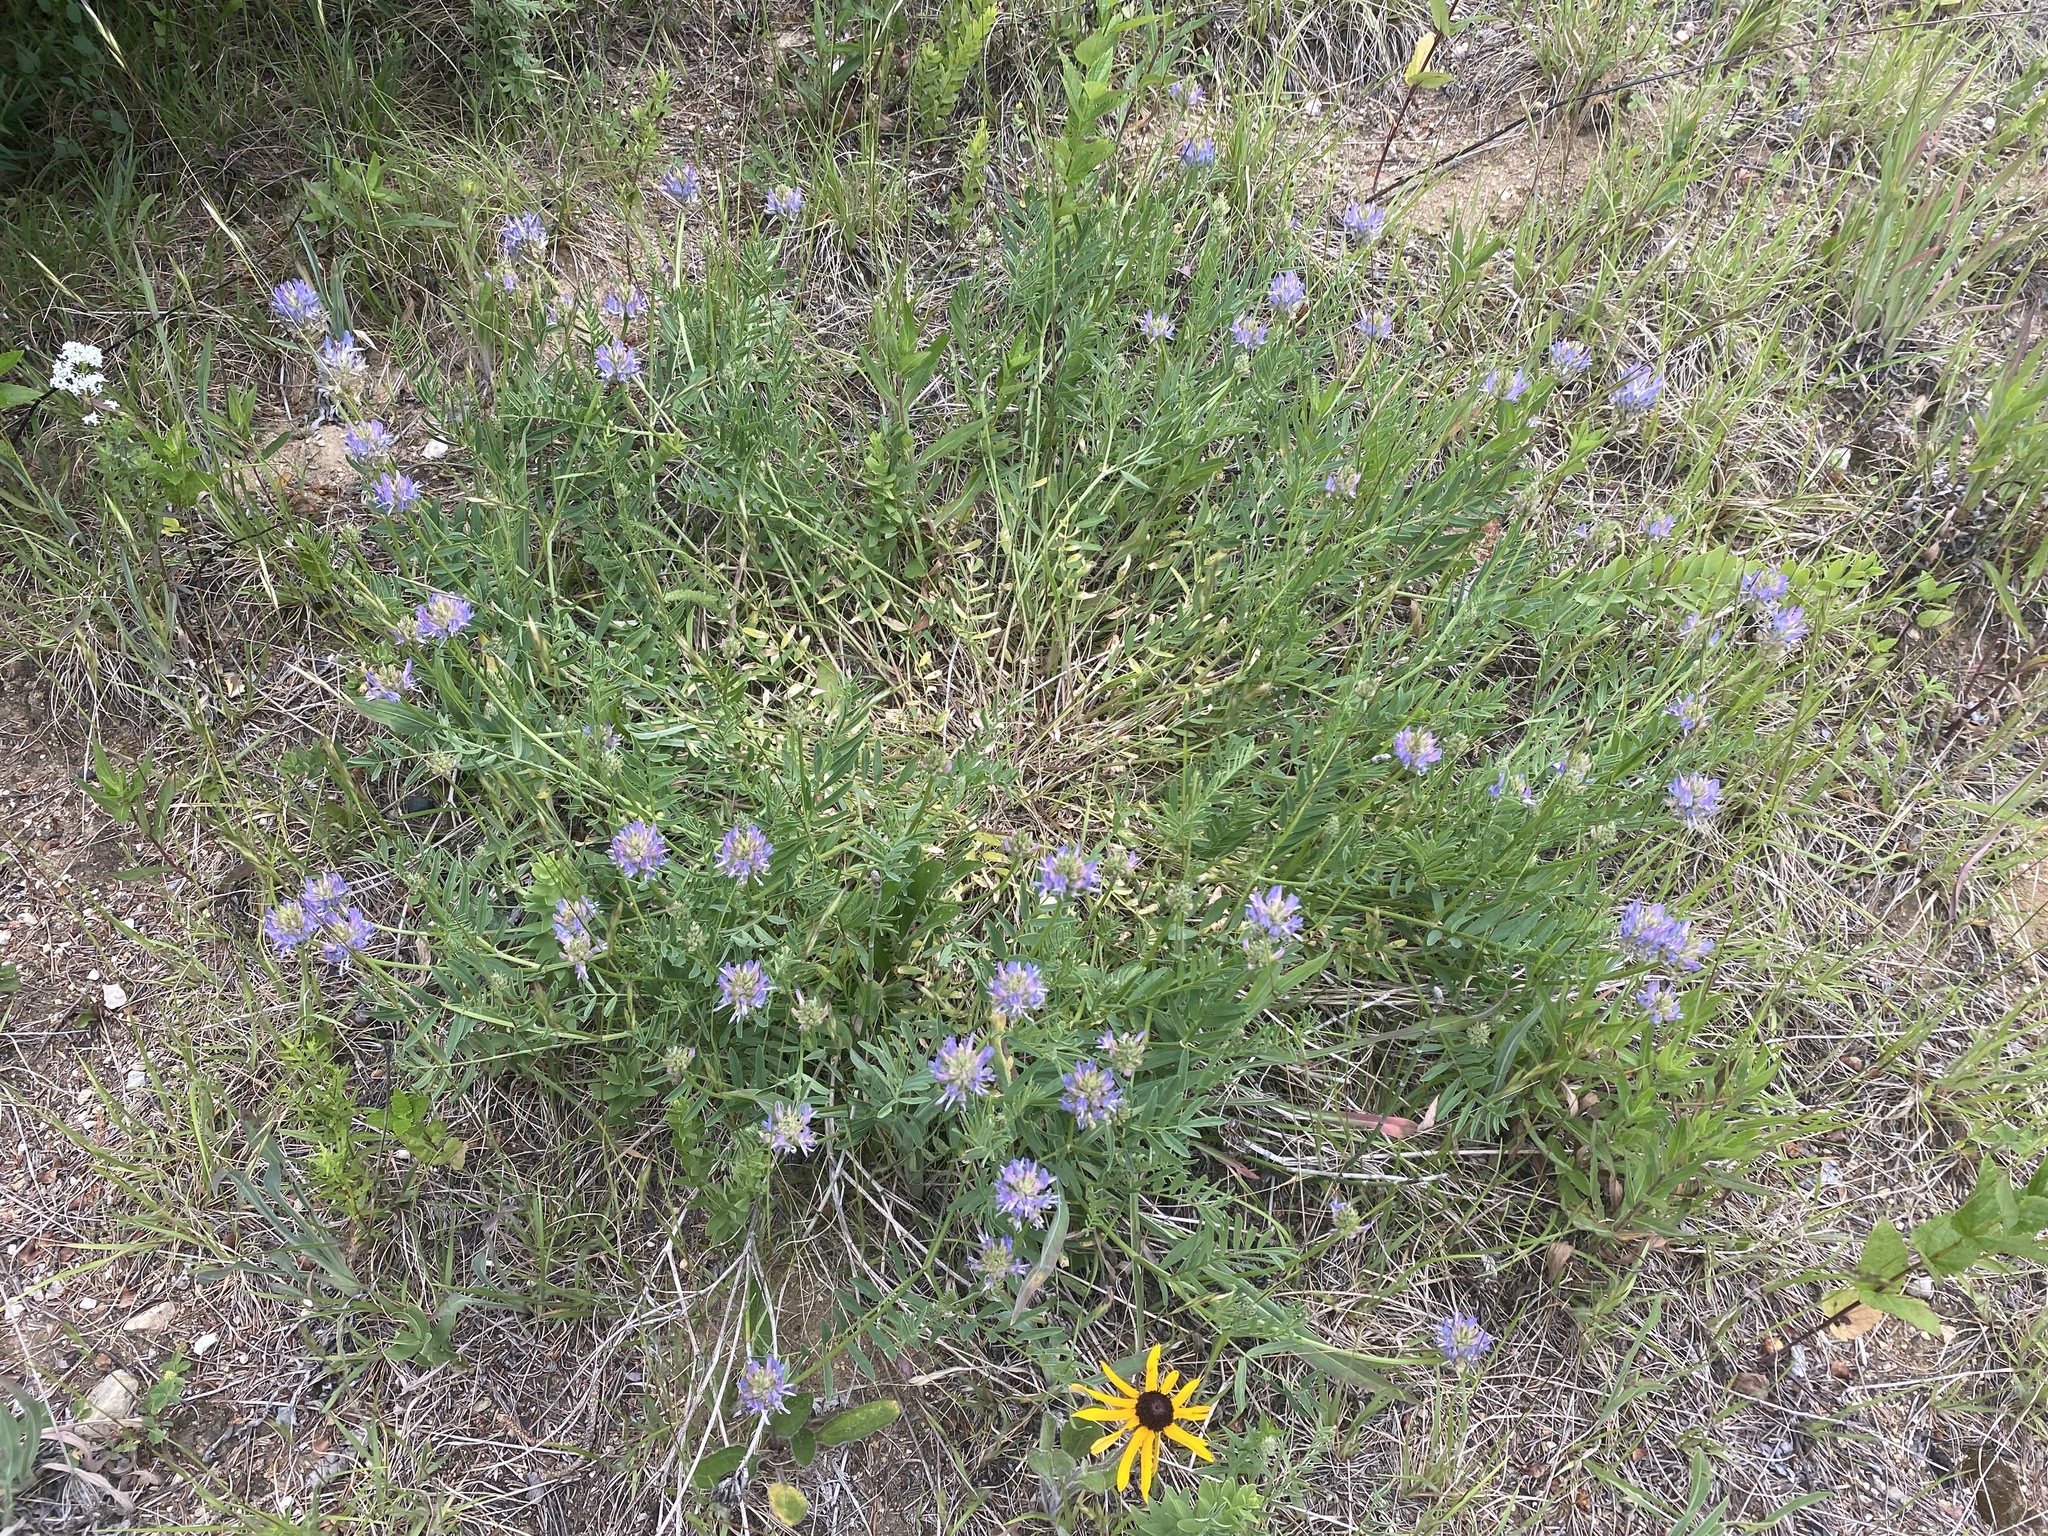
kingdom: Plantae
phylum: Tracheophyta
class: Magnoliopsida
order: Fabales
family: Fabaceae
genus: Astragalus
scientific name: Astragalus laxmannii
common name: Laxmann's milk-vetch
